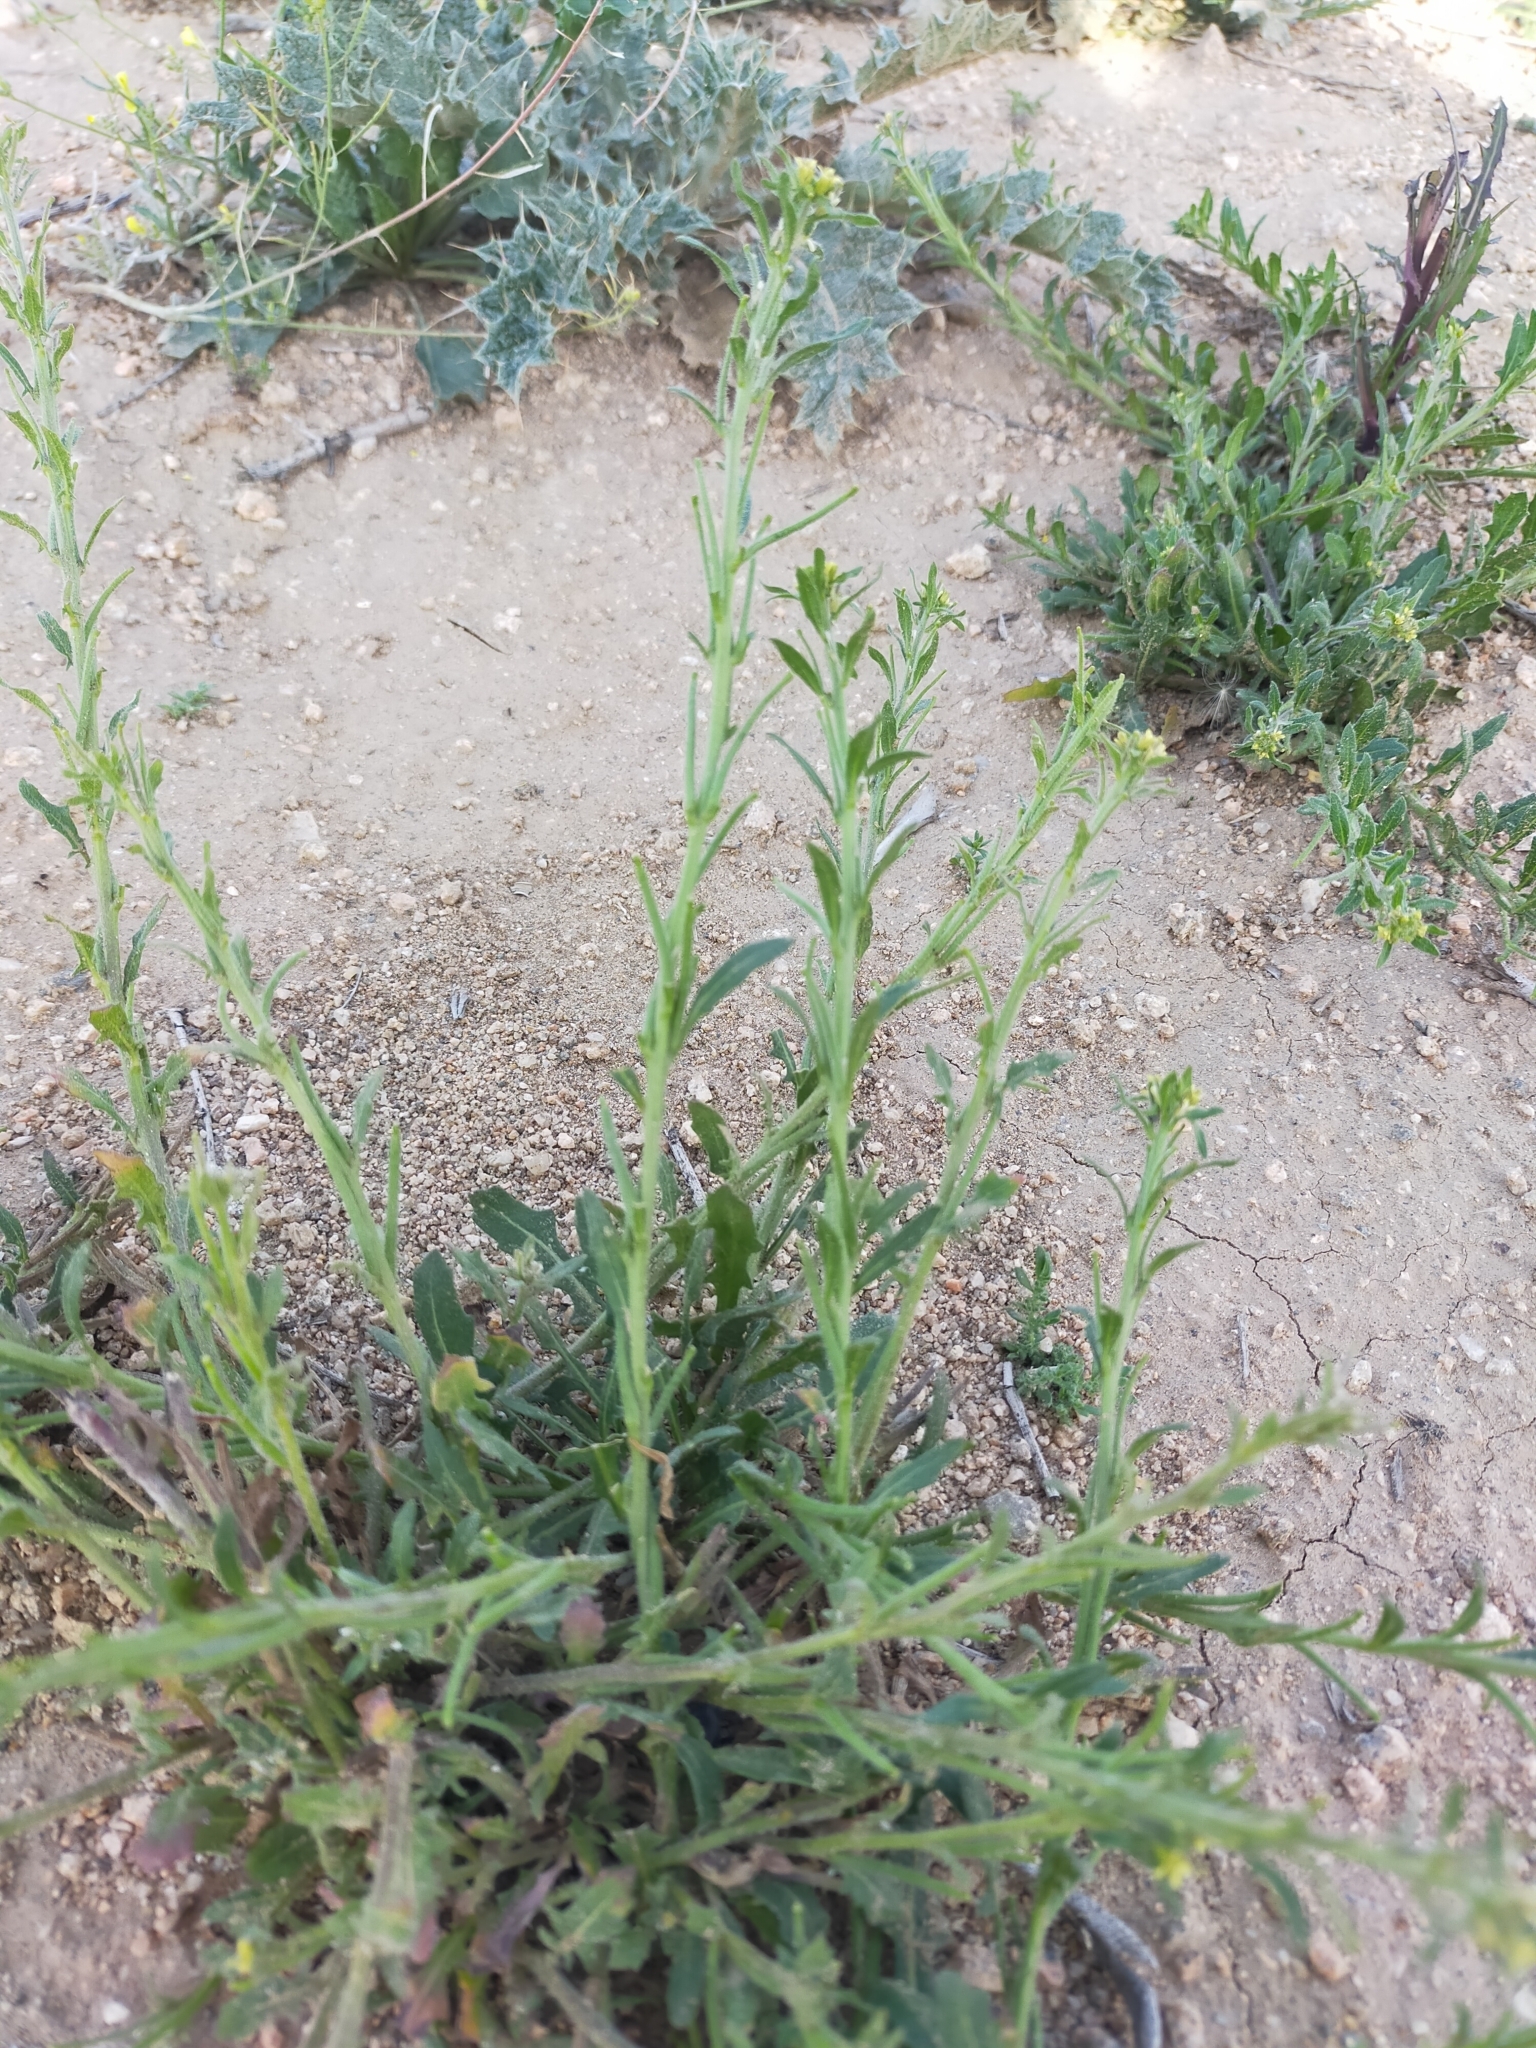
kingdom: Plantae
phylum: Tracheophyta
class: Magnoliopsida
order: Brassicales
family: Brassicaceae
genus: Sisymbrium
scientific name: Sisymbrium runcinatum
